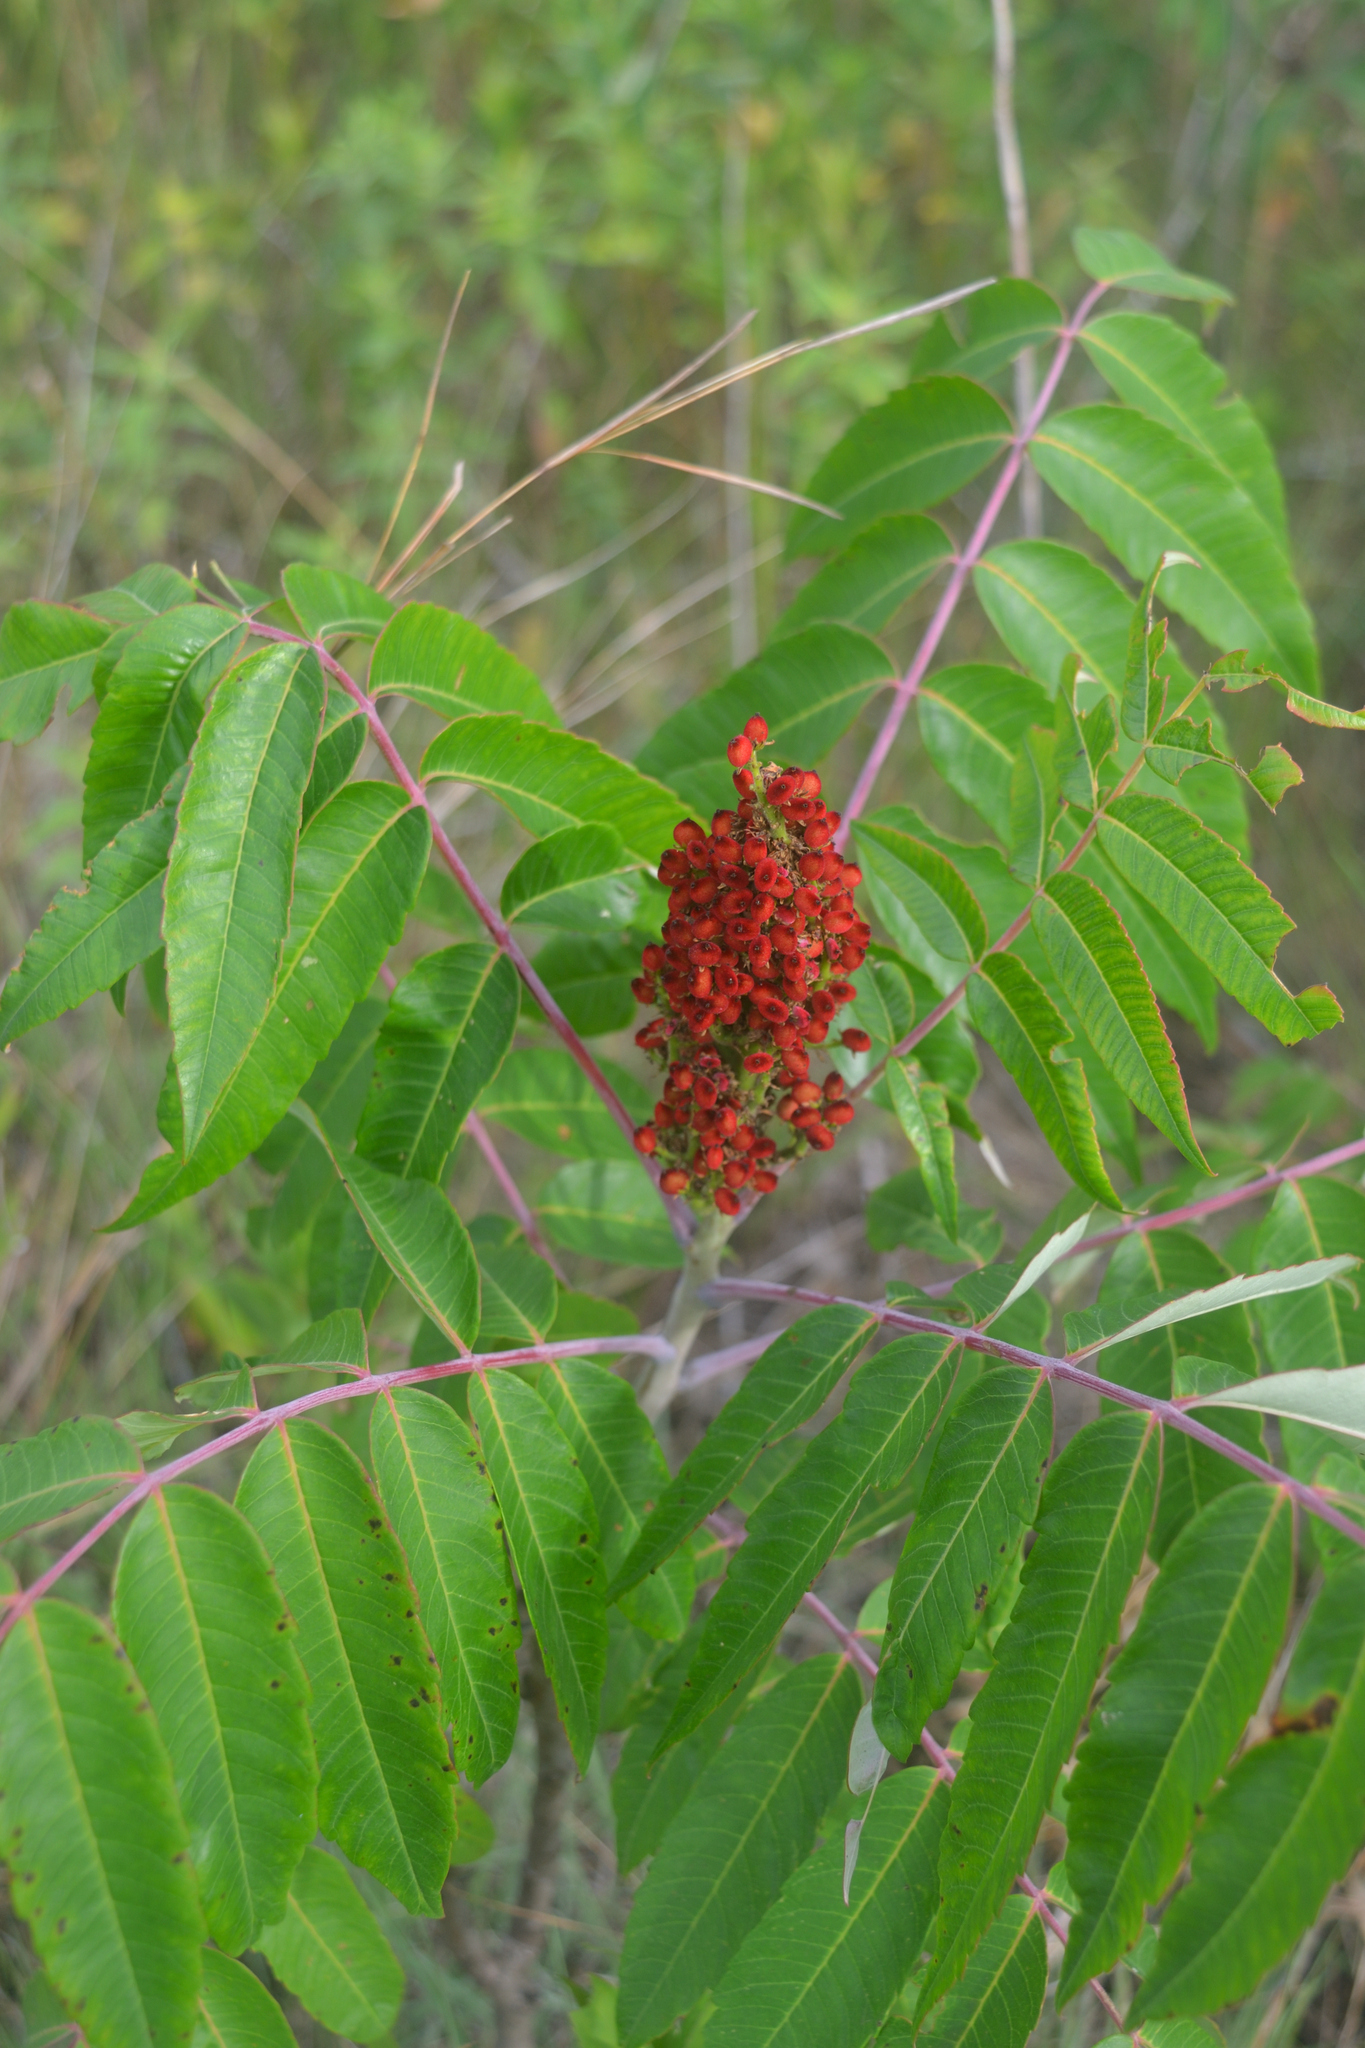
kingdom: Plantae
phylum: Tracheophyta
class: Magnoliopsida
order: Sapindales
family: Anacardiaceae
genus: Rhus
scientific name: Rhus glabra
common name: Scarlet sumac
